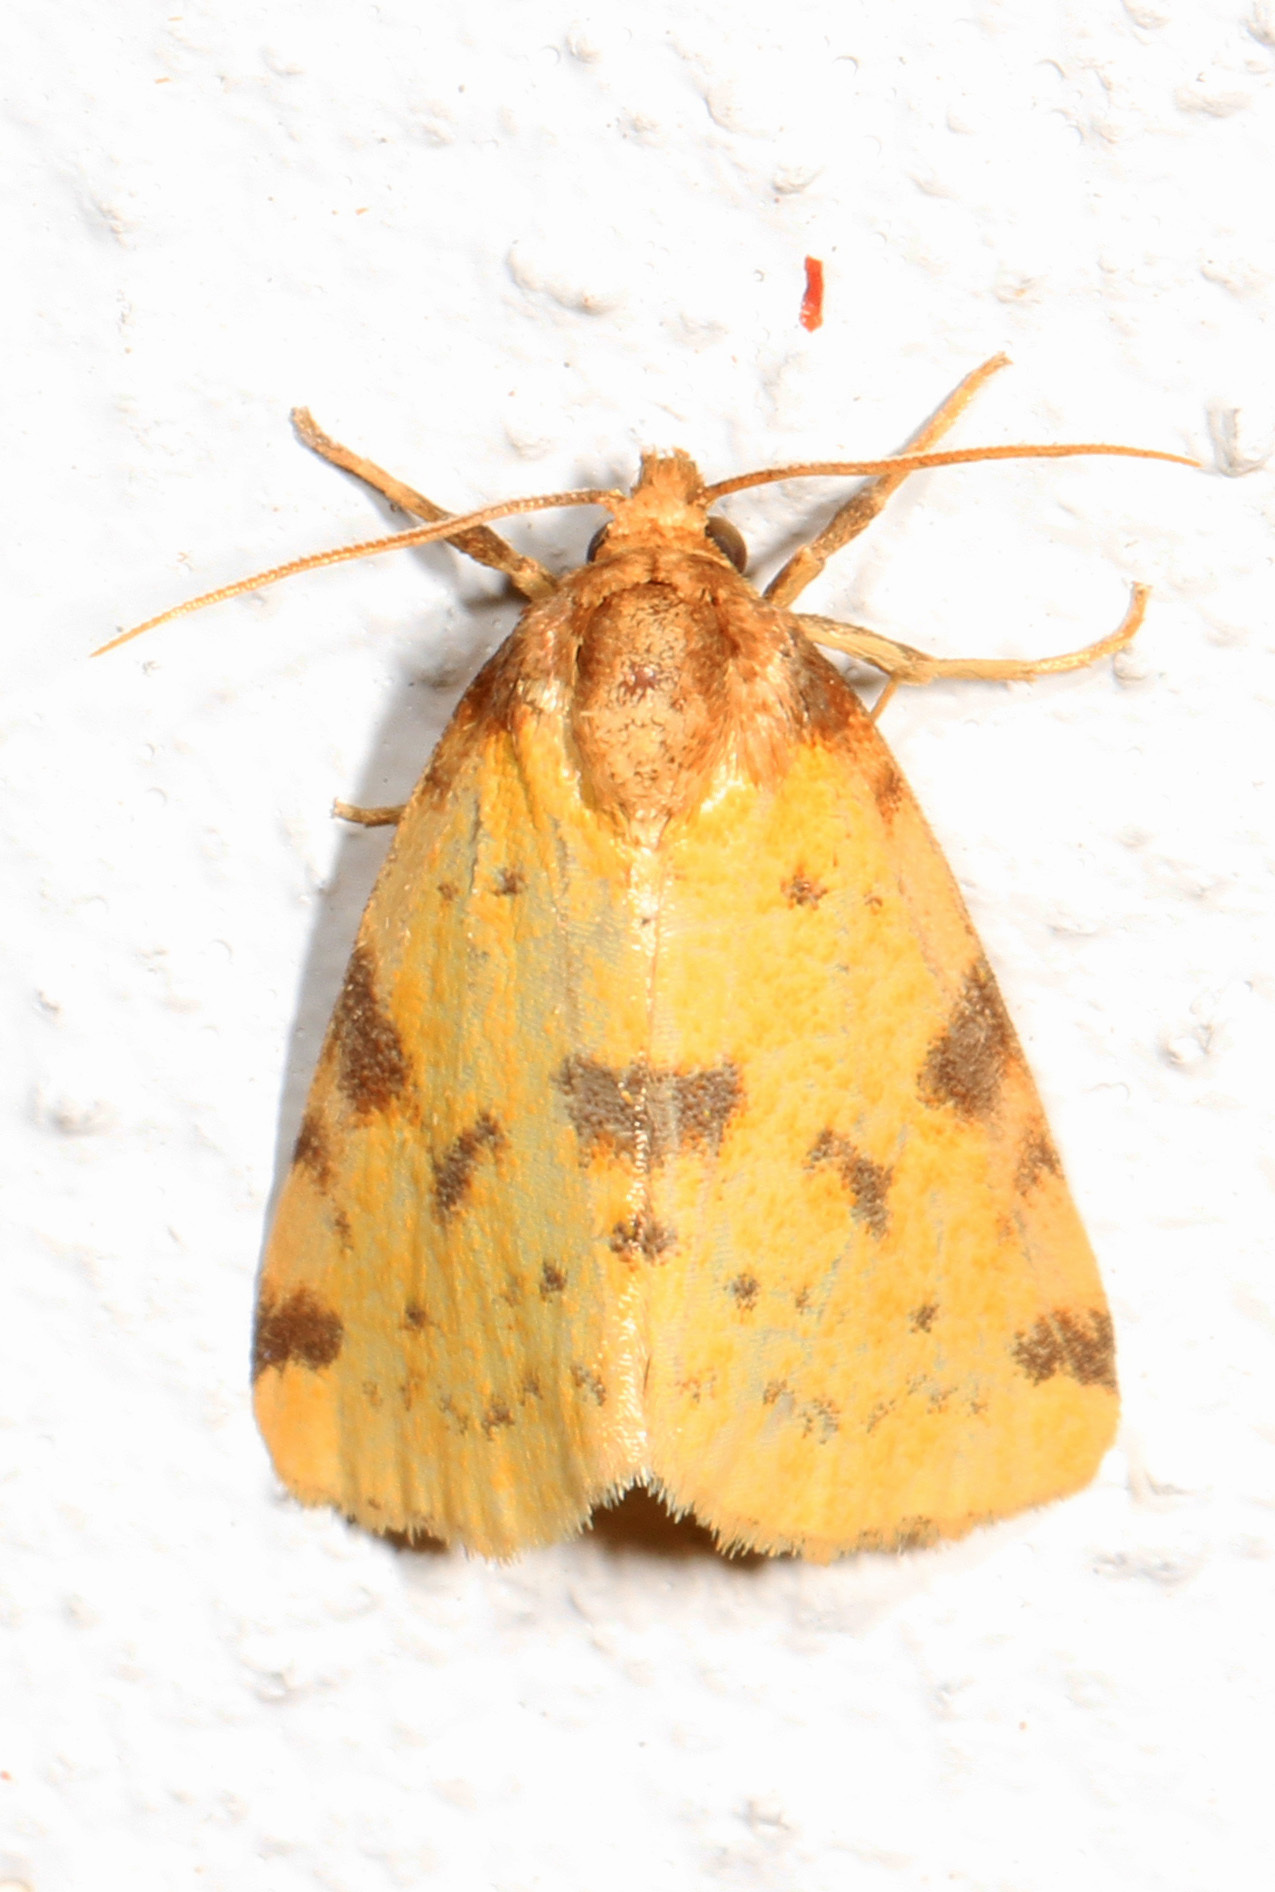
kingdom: Animalia
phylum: Arthropoda
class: Insecta
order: Lepidoptera
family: Noctuidae
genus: Azenia
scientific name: Azenia obtusa
